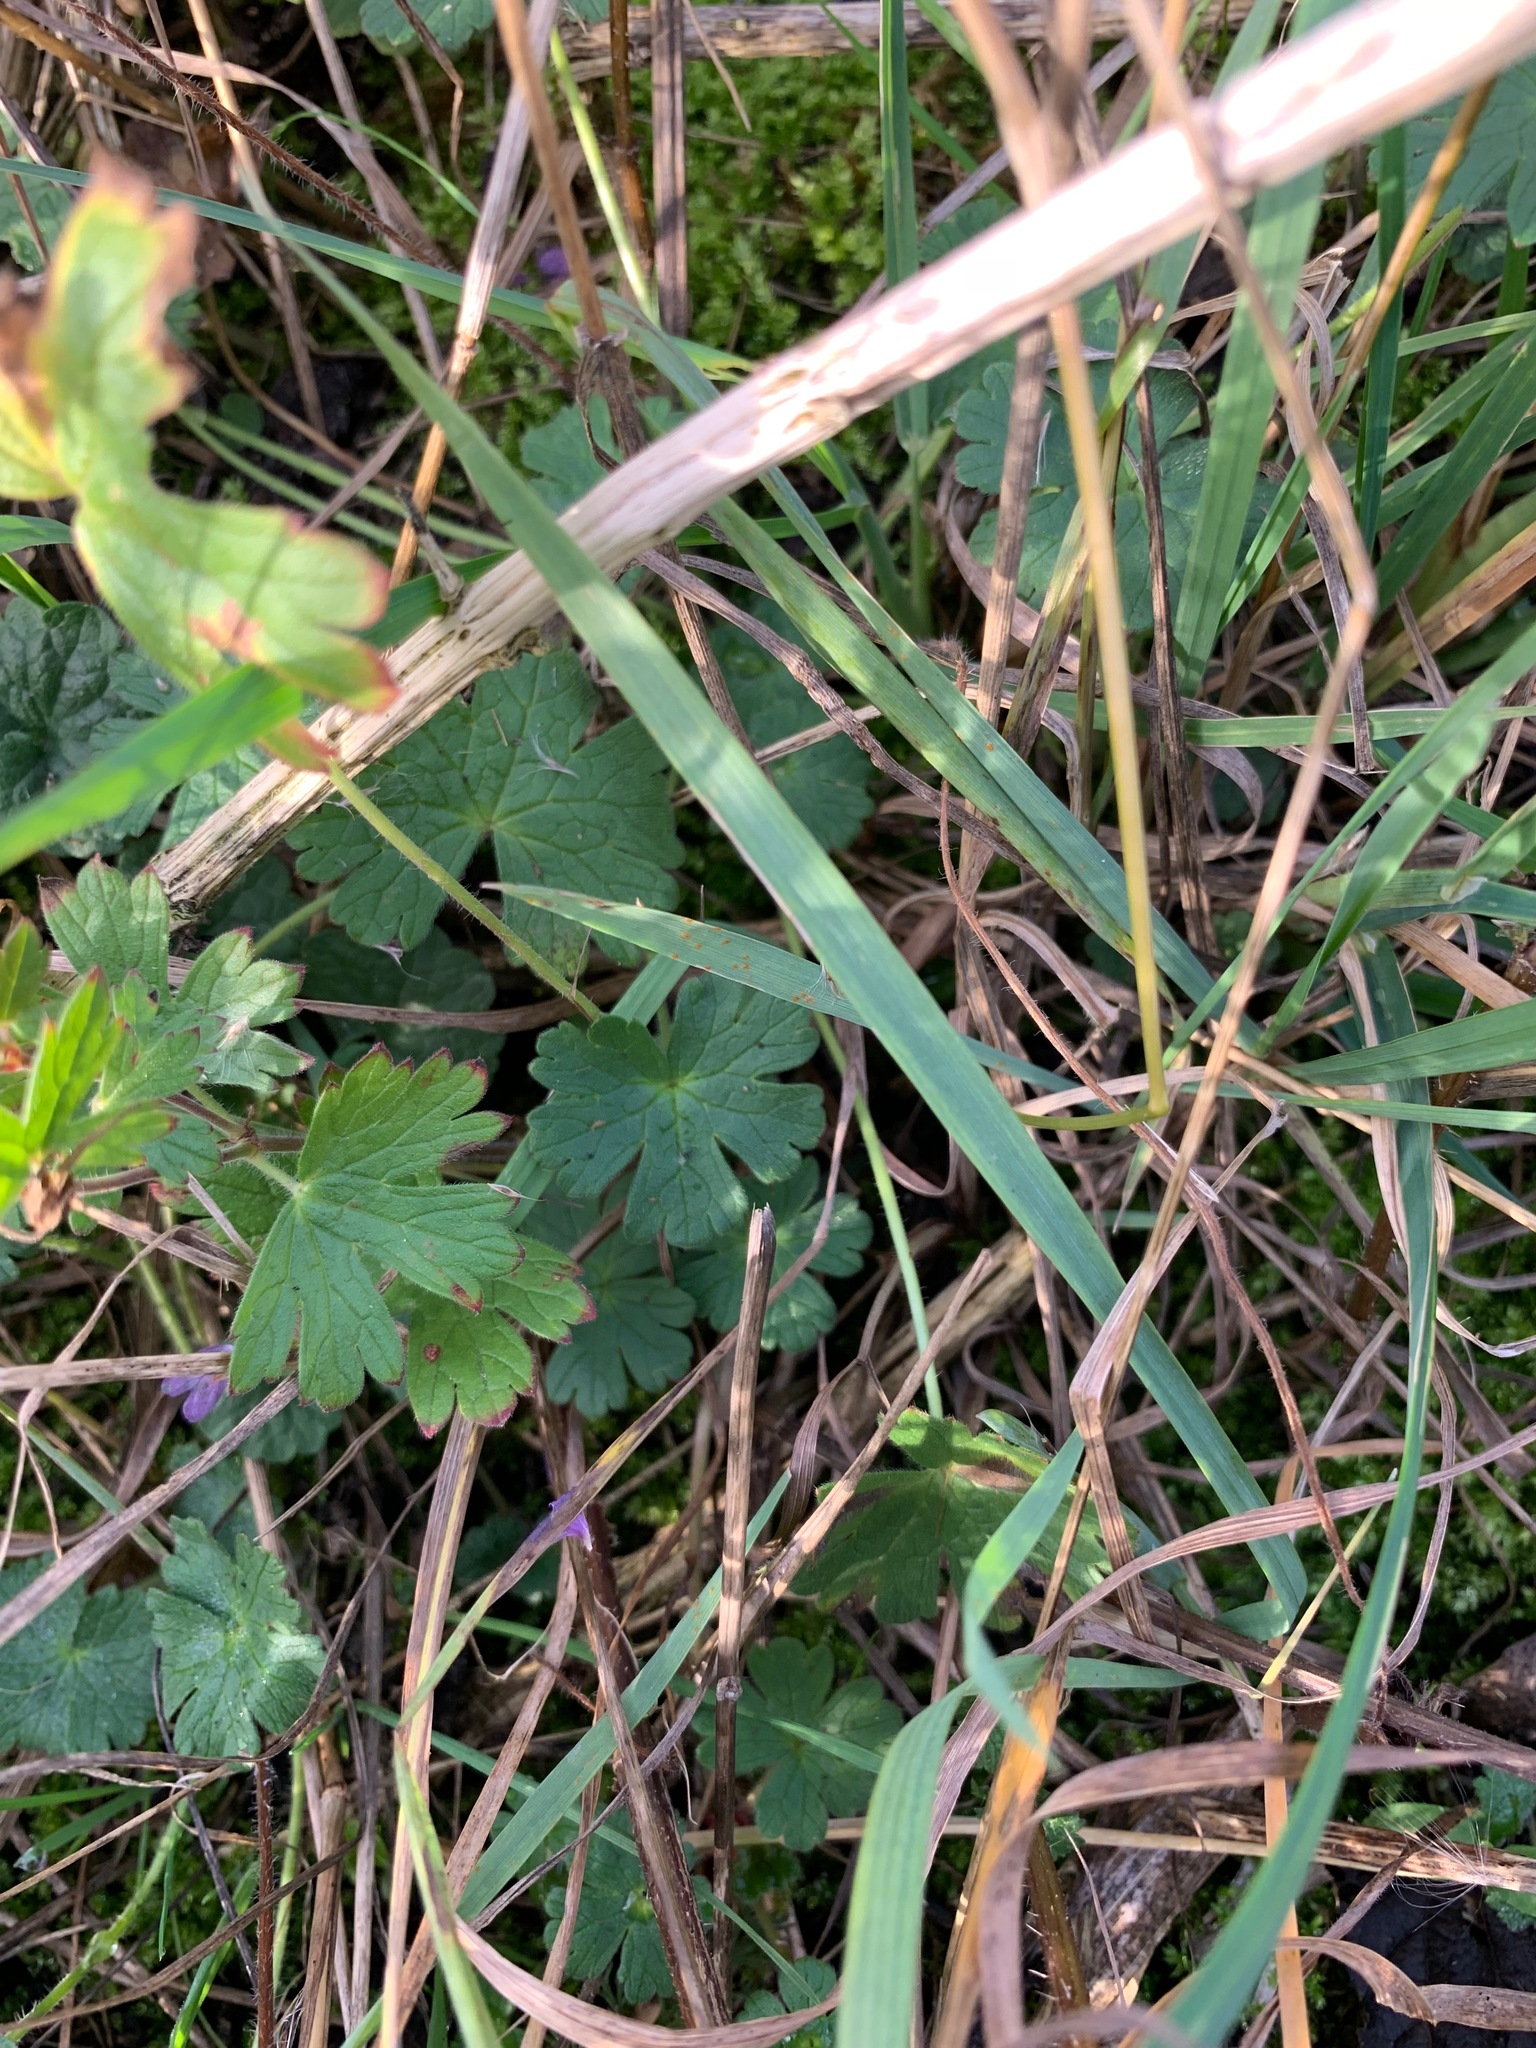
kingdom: Plantae
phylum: Tracheophyta
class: Magnoliopsida
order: Geraniales
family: Geraniaceae
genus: Geranium
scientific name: Geranium pyrenaicum
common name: Hedgerow crane's-bill
